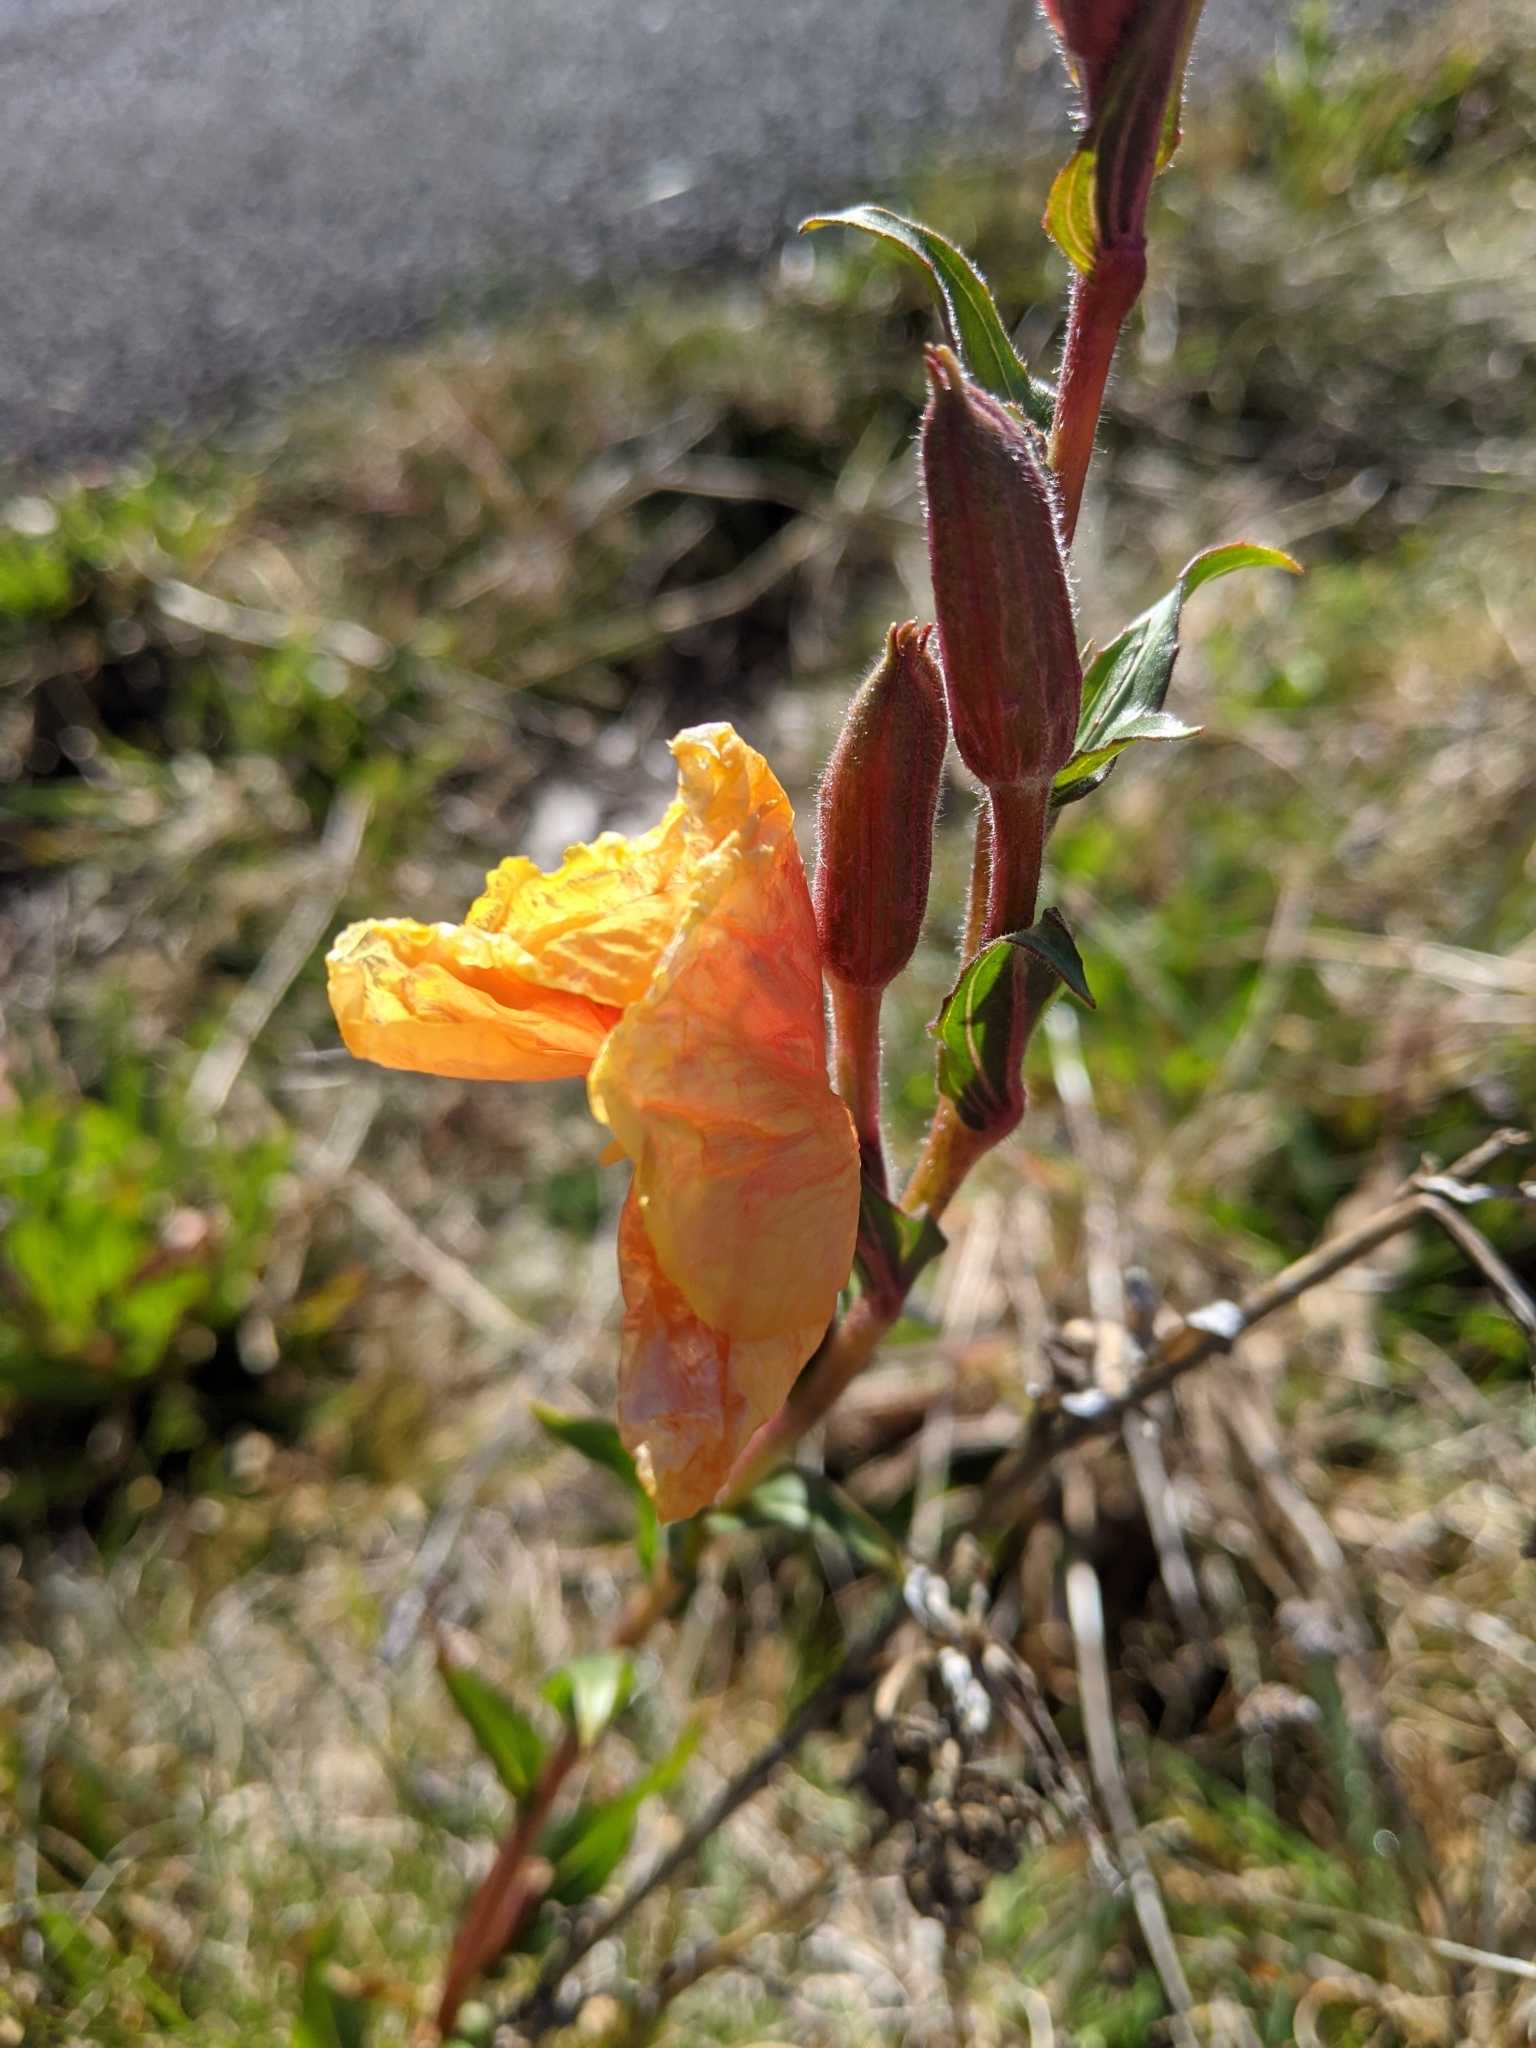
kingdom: Plantae
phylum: Tracheophyta
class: Magnoliopsida
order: Myrtales
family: Onagraceae
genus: Oenothera
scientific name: Oenothera stricta
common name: Fragrant evening-primrose
